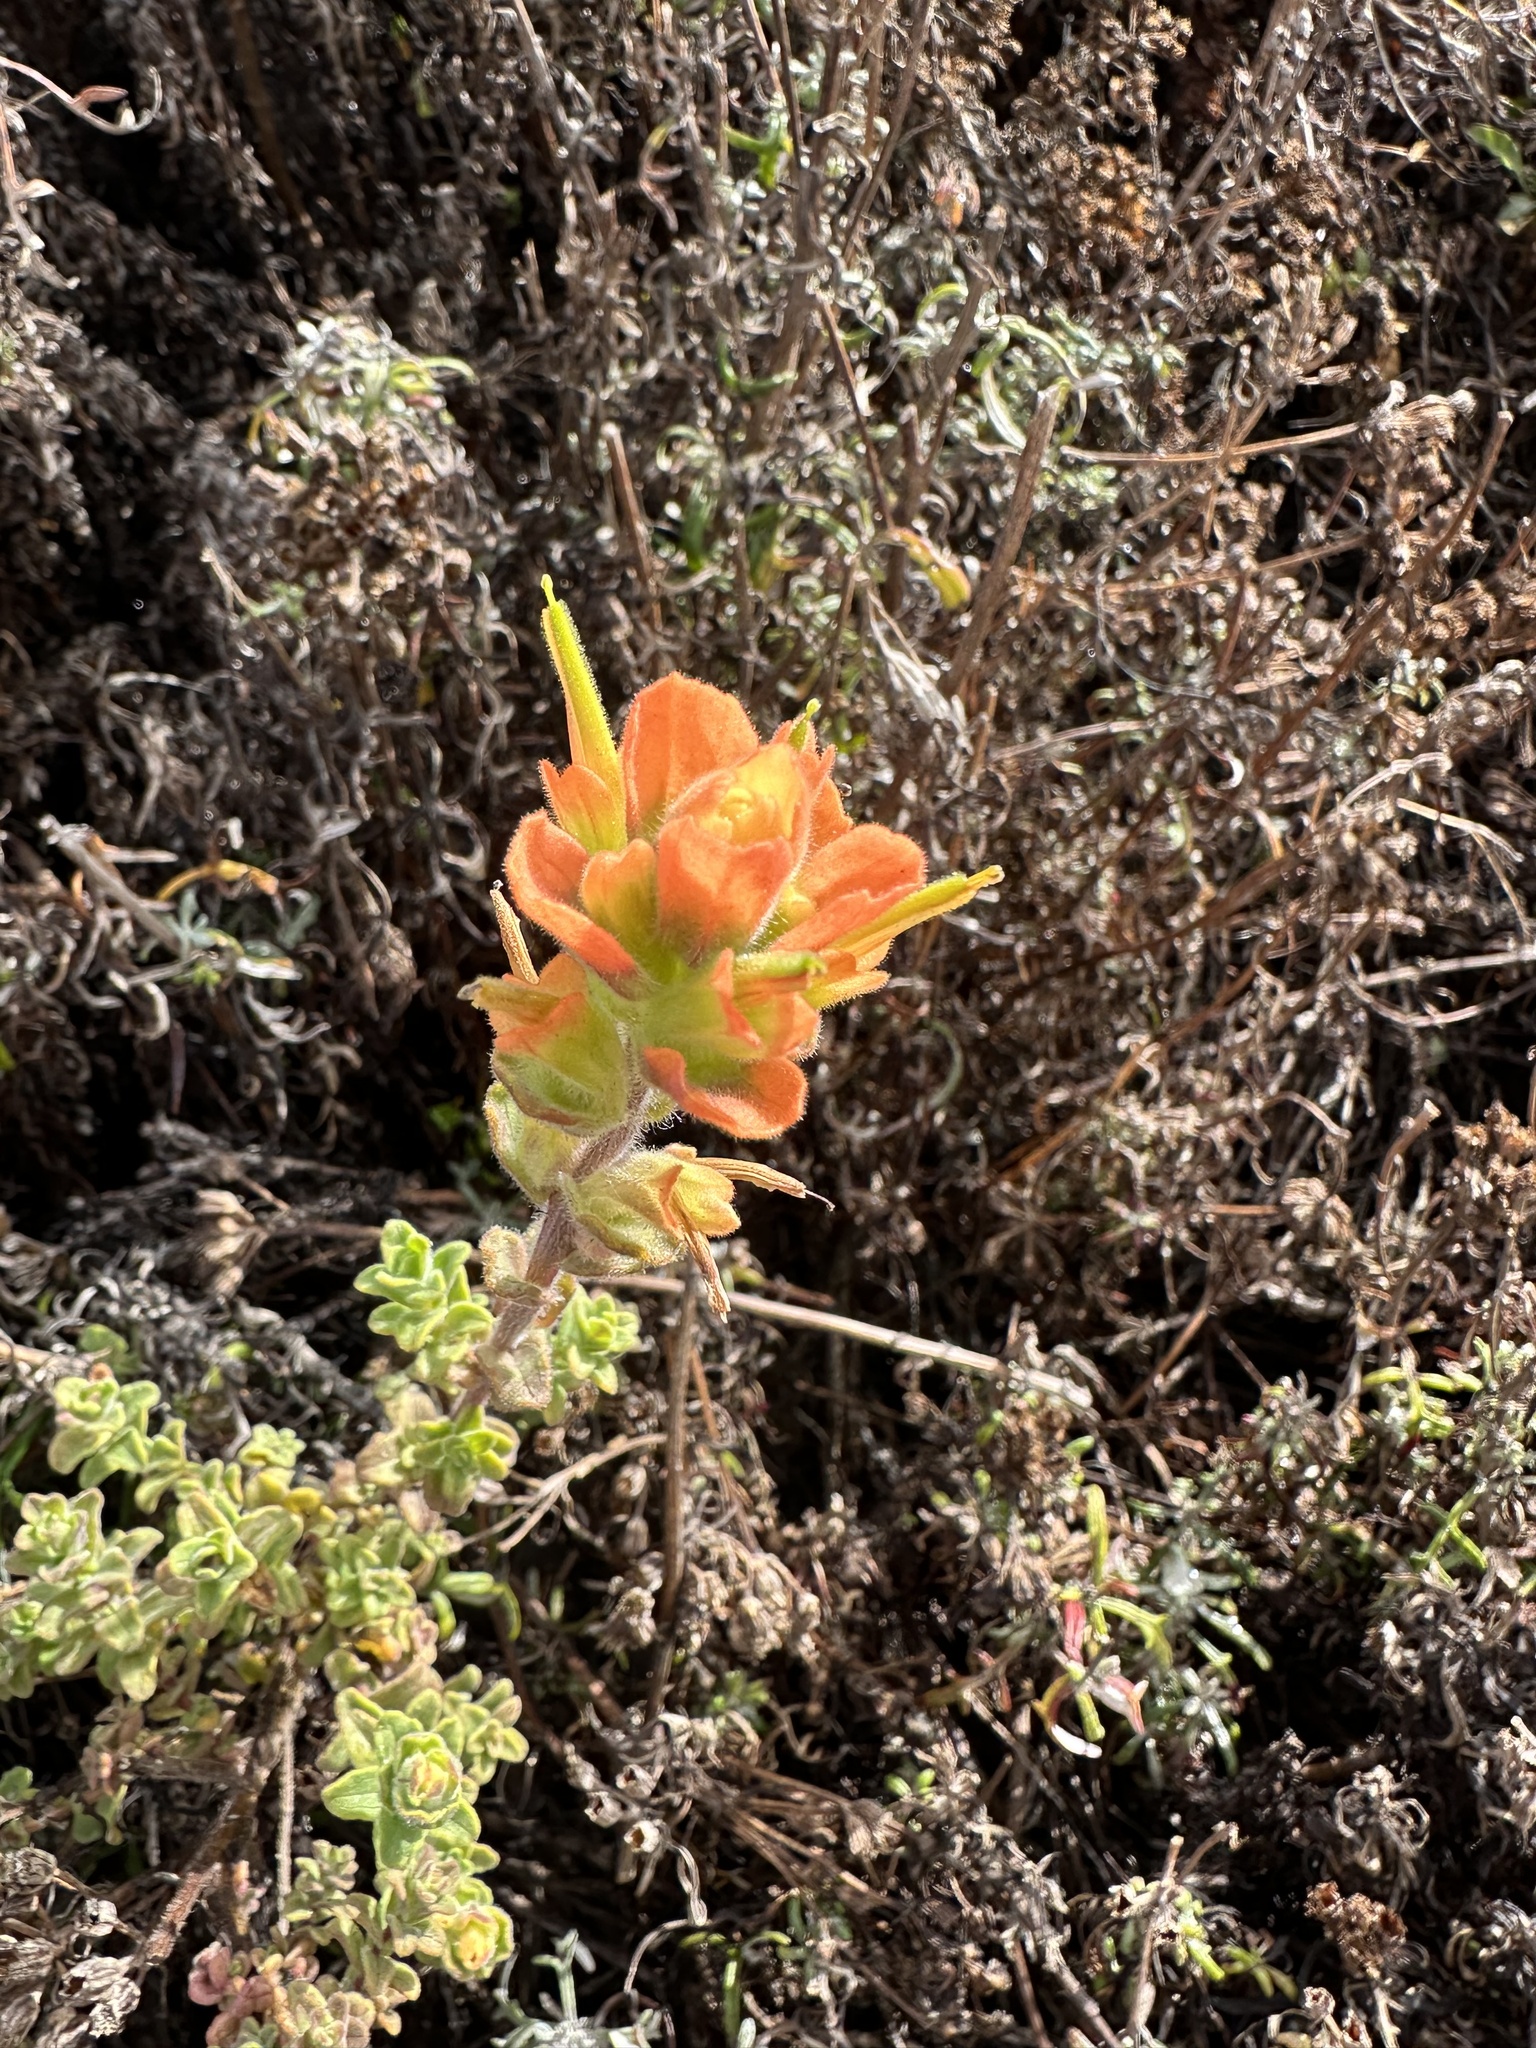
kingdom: Plantae
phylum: Tracheophyta
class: Magnoliopsida
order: Lamiales
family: Orobanchaceae
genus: Castilleja
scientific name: Castilleja latifolia
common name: Monterey indian paintbrush
